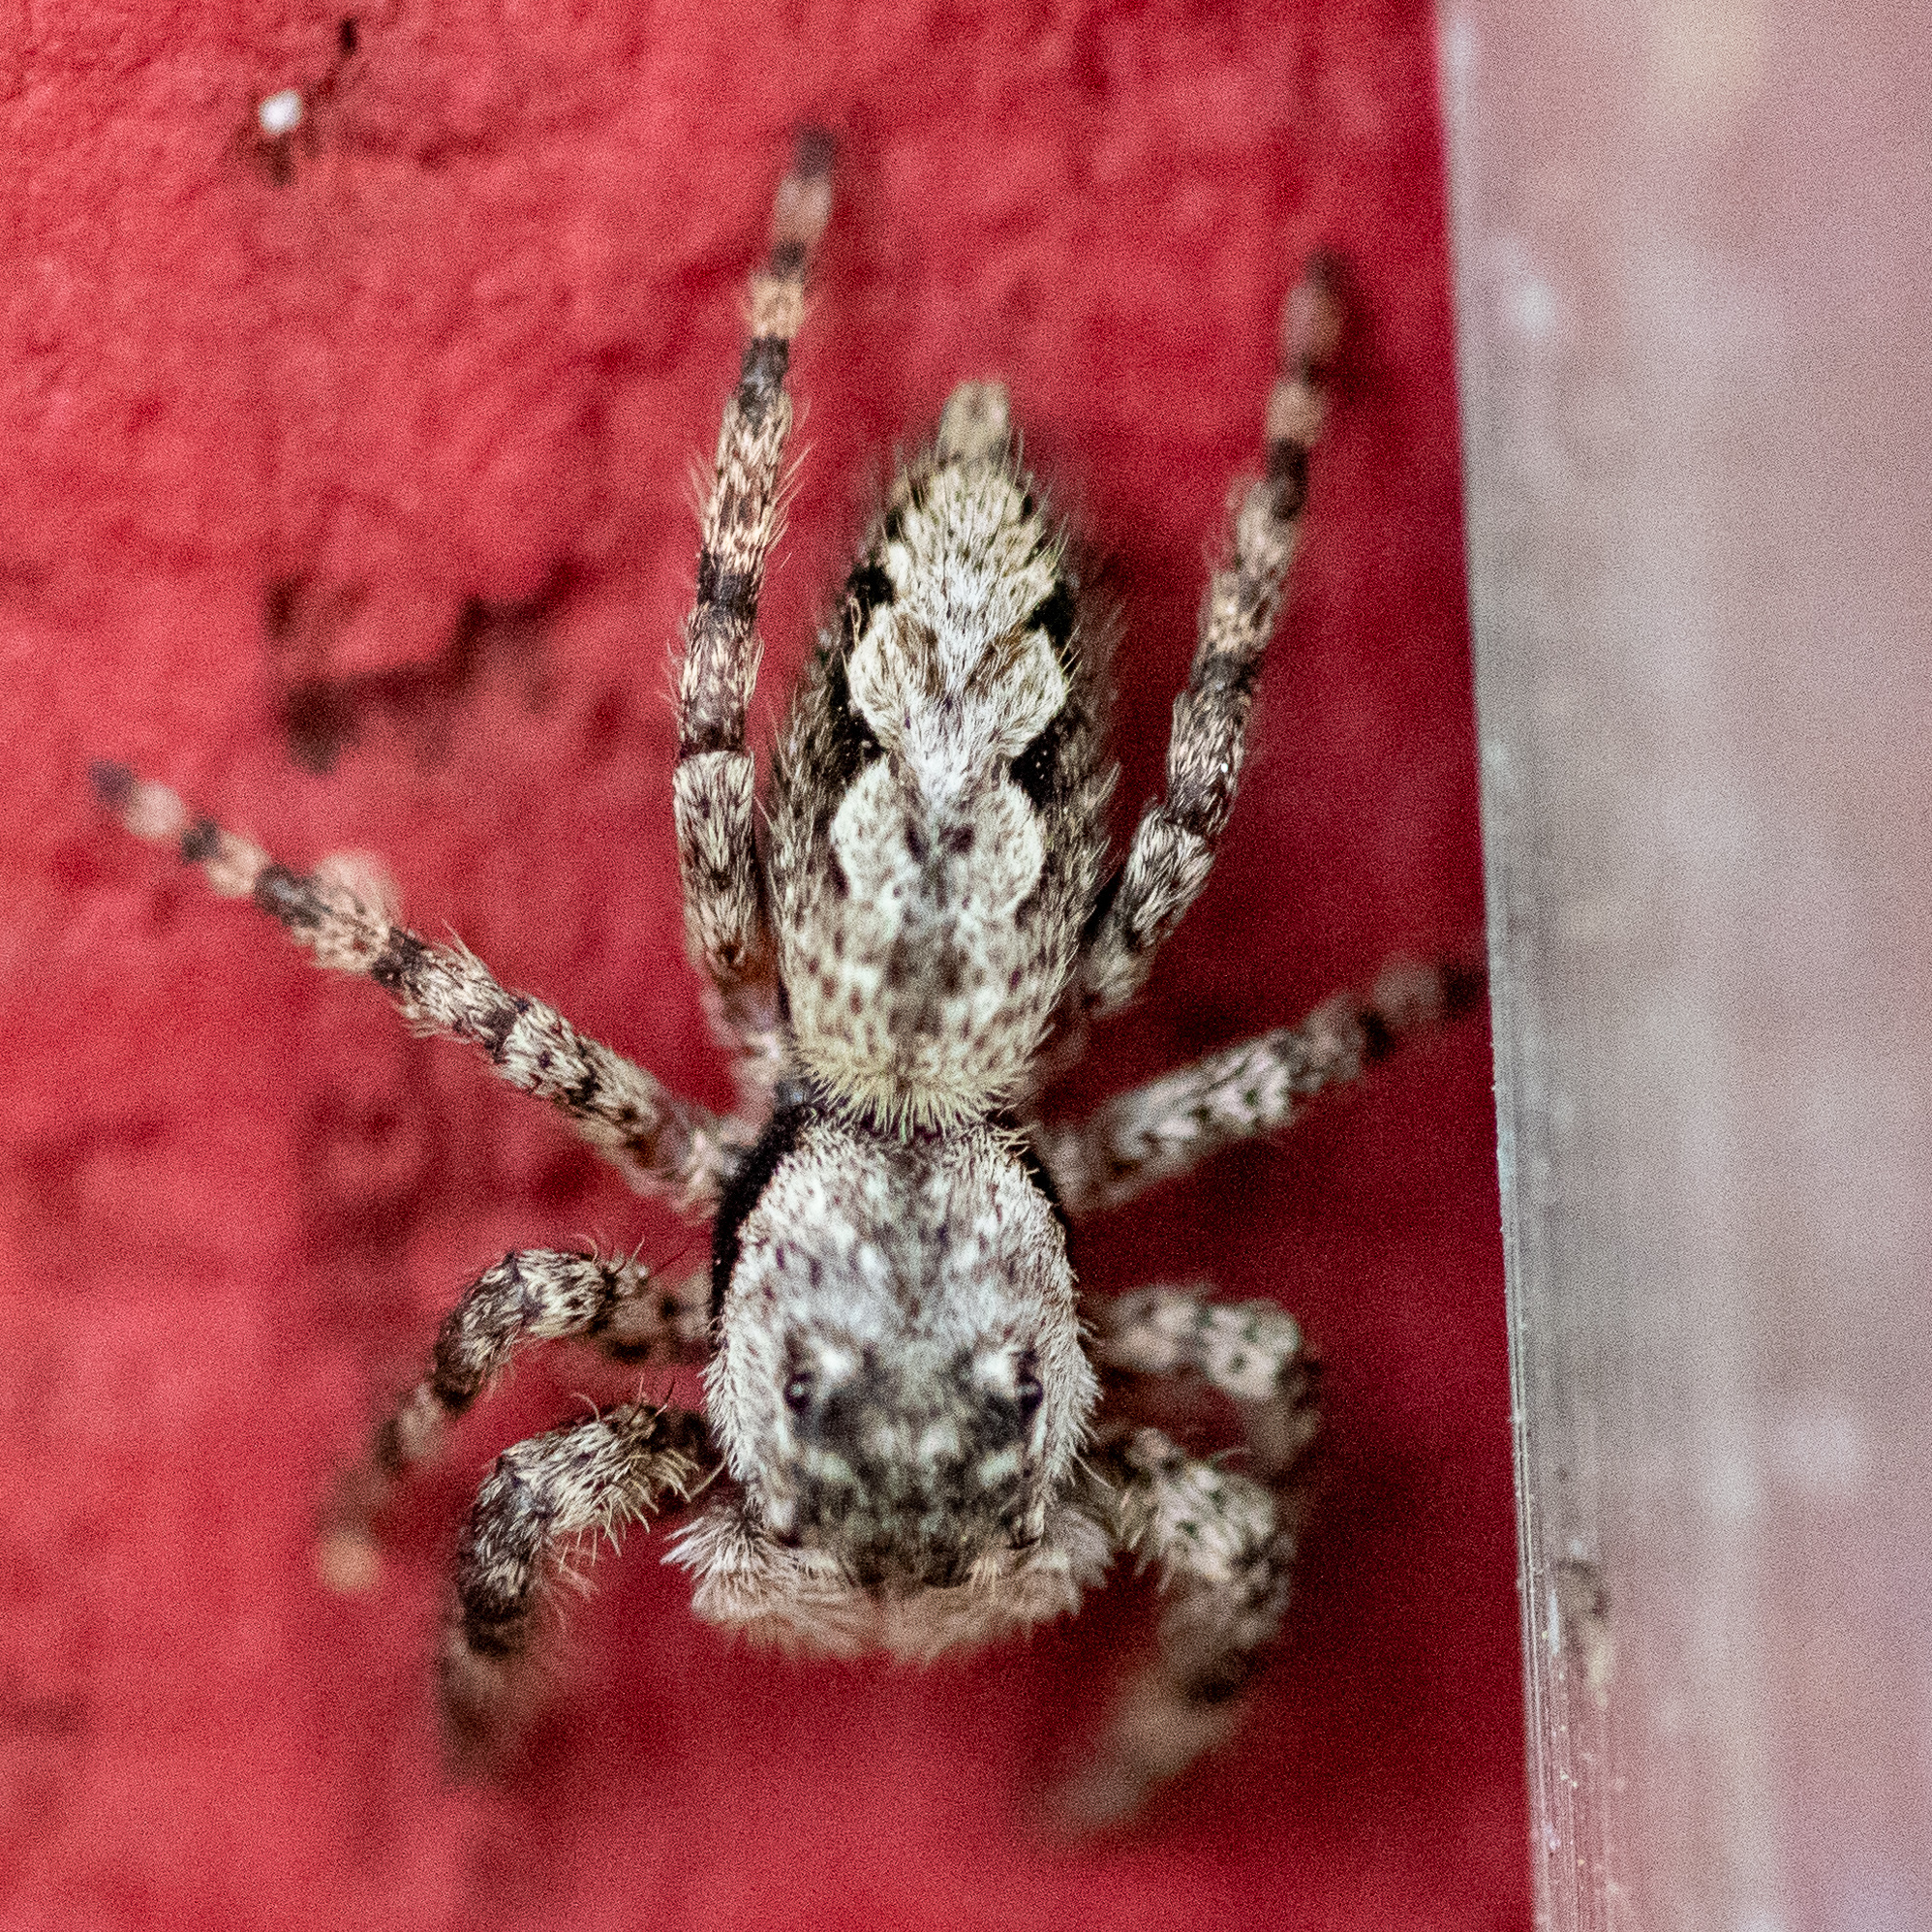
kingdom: Animalia
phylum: Arthropoda
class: Arachnida
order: Araneae
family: Salticidae
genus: Platycryptus
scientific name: Platycryptus undatus
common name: Tan jumping spider
